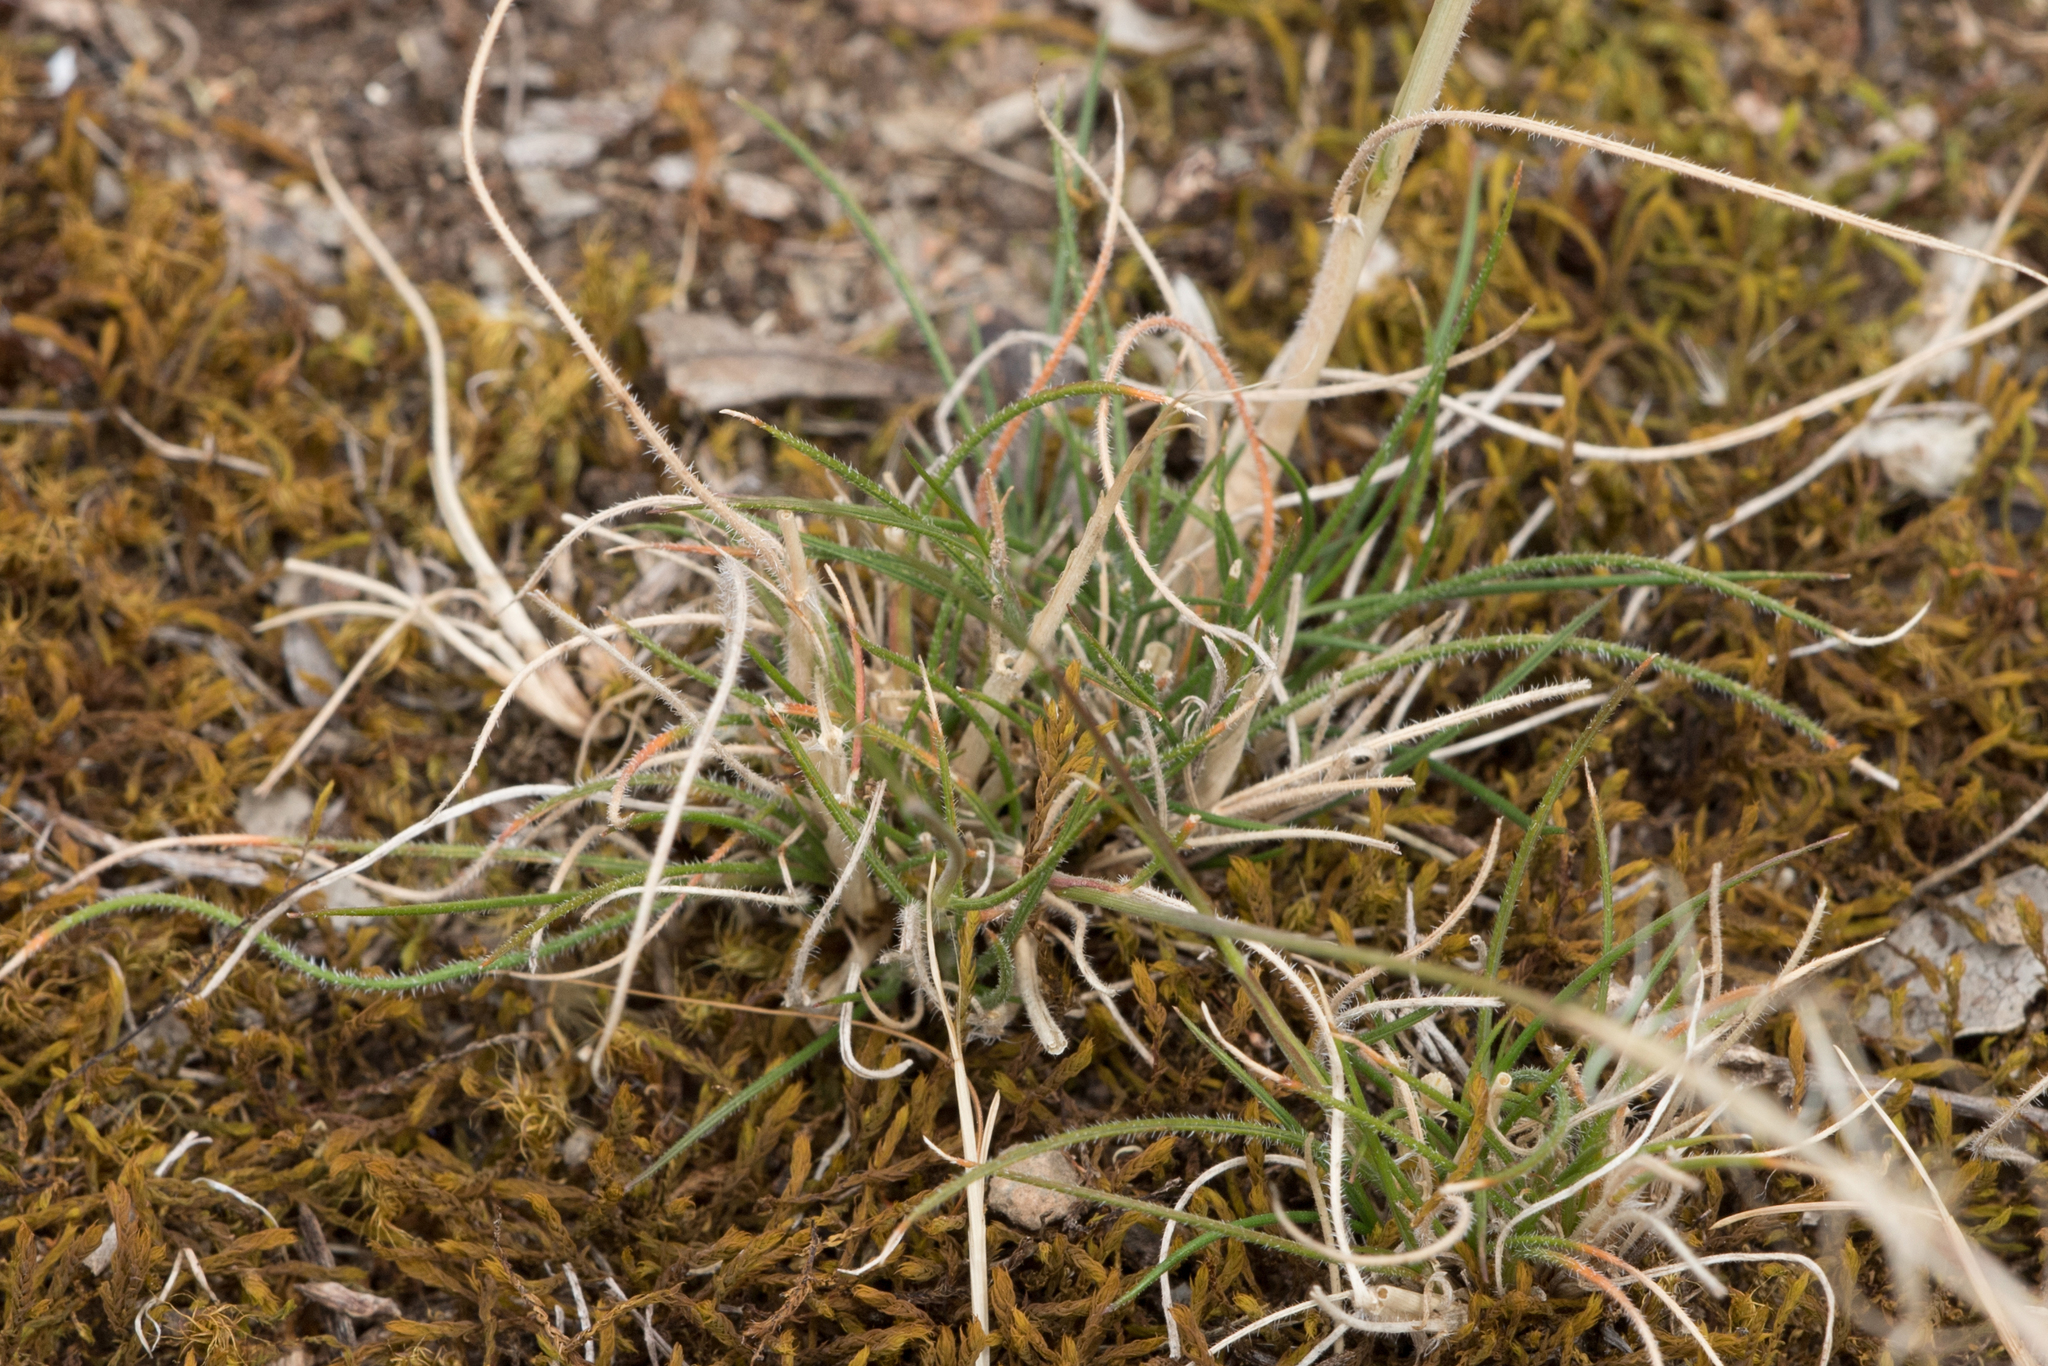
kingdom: Plantae
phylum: Tracheophyta
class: Liliopsida
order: Poales
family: Poaceae
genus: Austrostipa
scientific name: Austrostipa scabra
